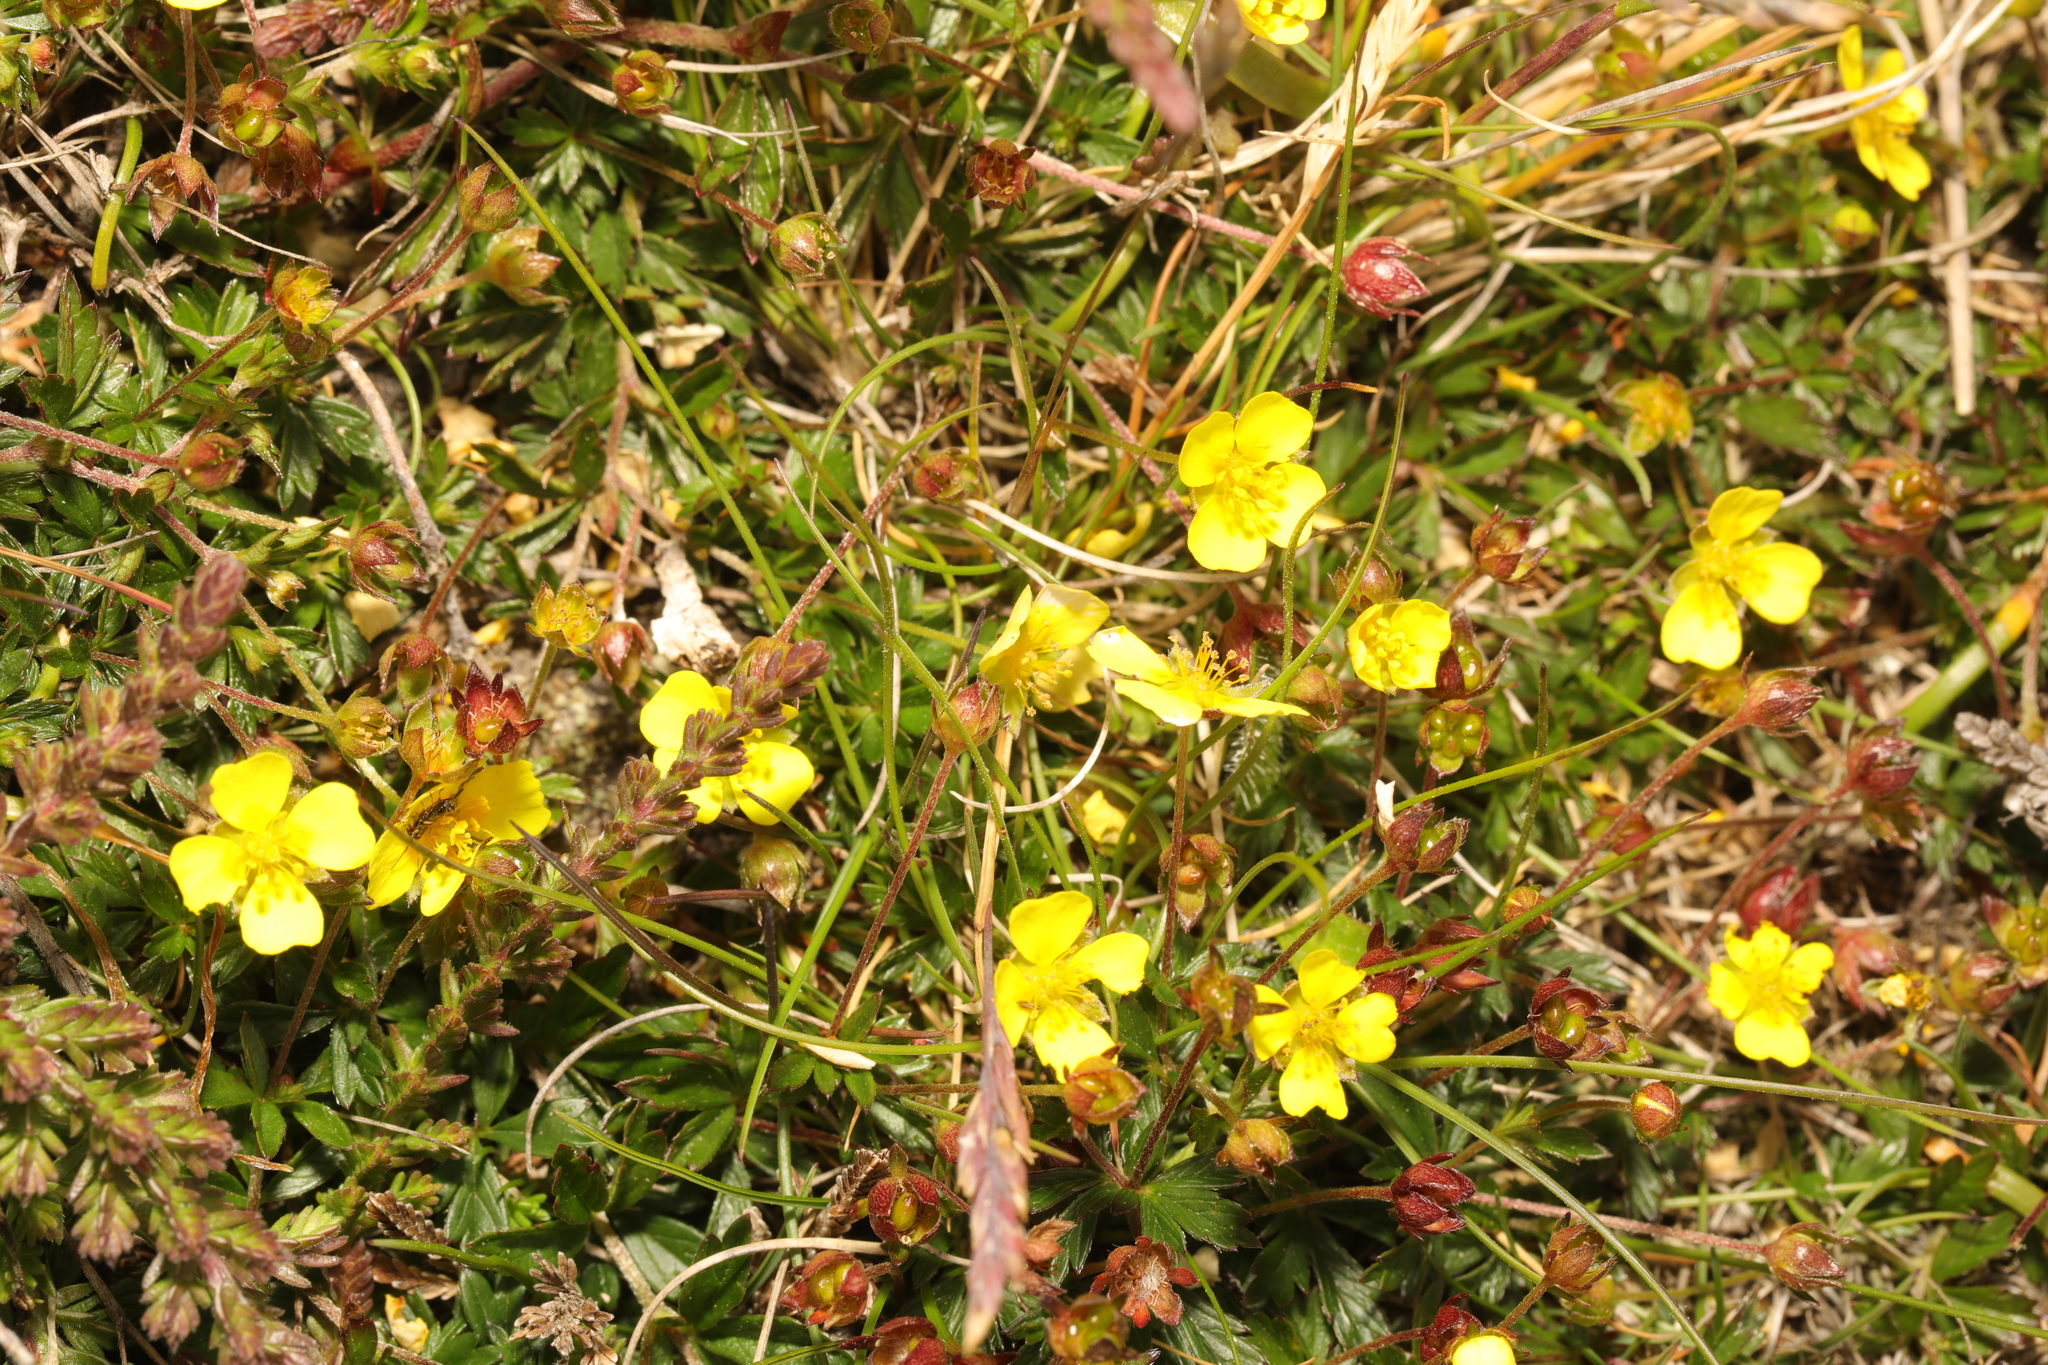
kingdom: Plantae
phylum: Tracheophyta
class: Magnoliopsida
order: Rosales
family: Rosaceae
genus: Potentilla
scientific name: Potentilla erecta
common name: Tormentil
